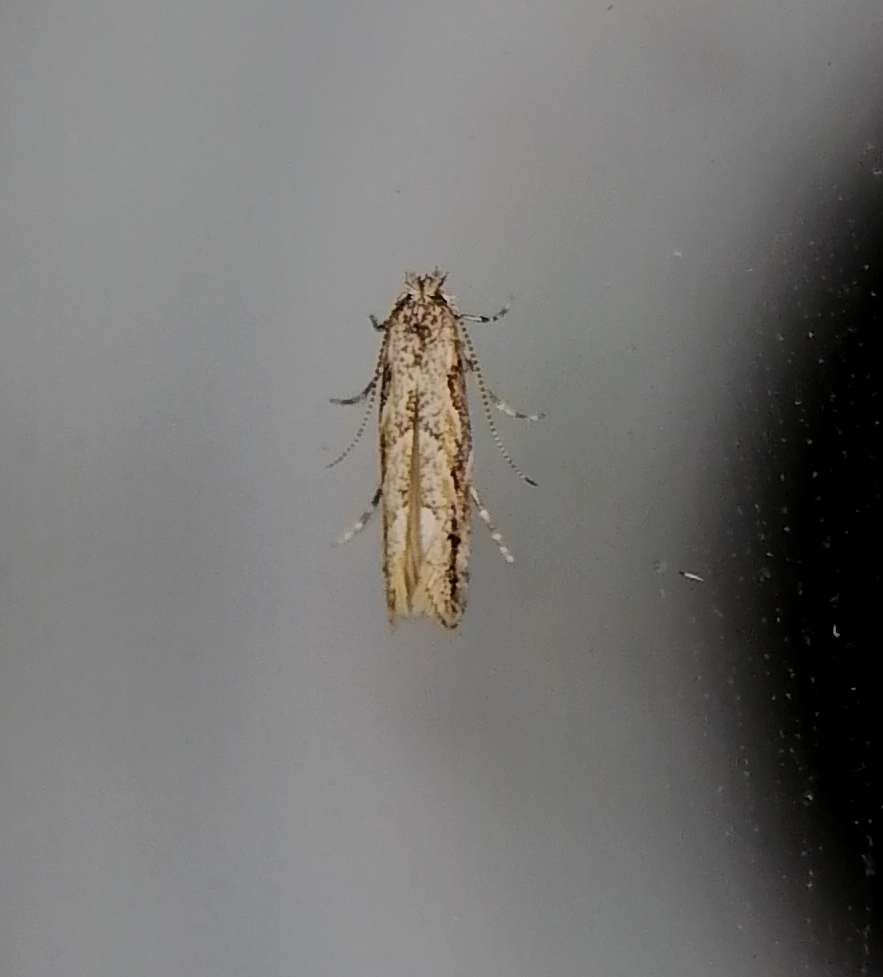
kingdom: Animalia
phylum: Arthropoda
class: Insecta
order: Lepidoptera
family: Gracillariidae
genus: Phyllonorycter
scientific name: Phyllonorycter issikii
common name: Linden midget
